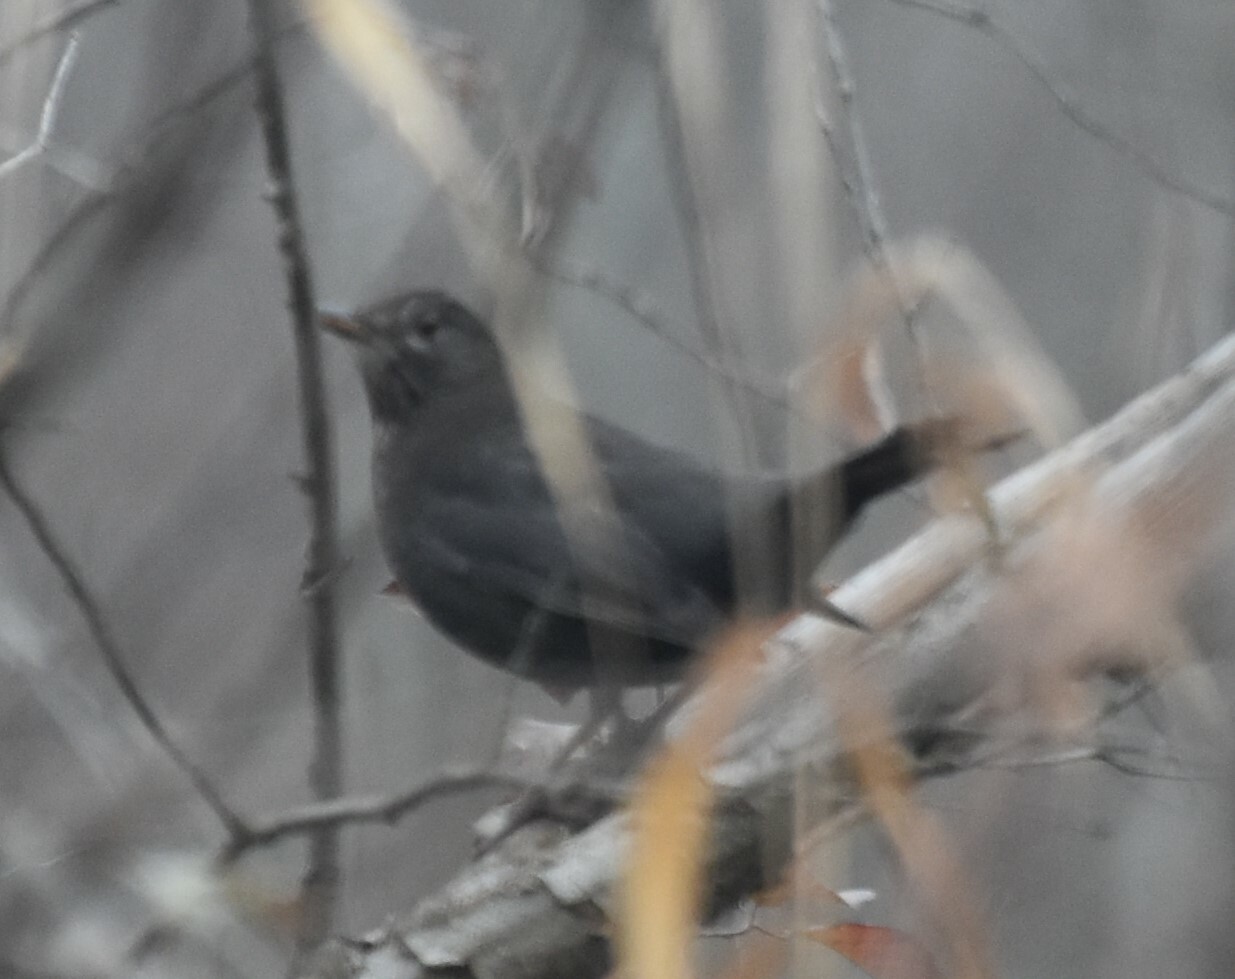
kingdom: Animalia
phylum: Chordata
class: Aves
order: Passeriformes
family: Turdidae
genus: Turdus
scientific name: Turdus merula
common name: Common blackbird
